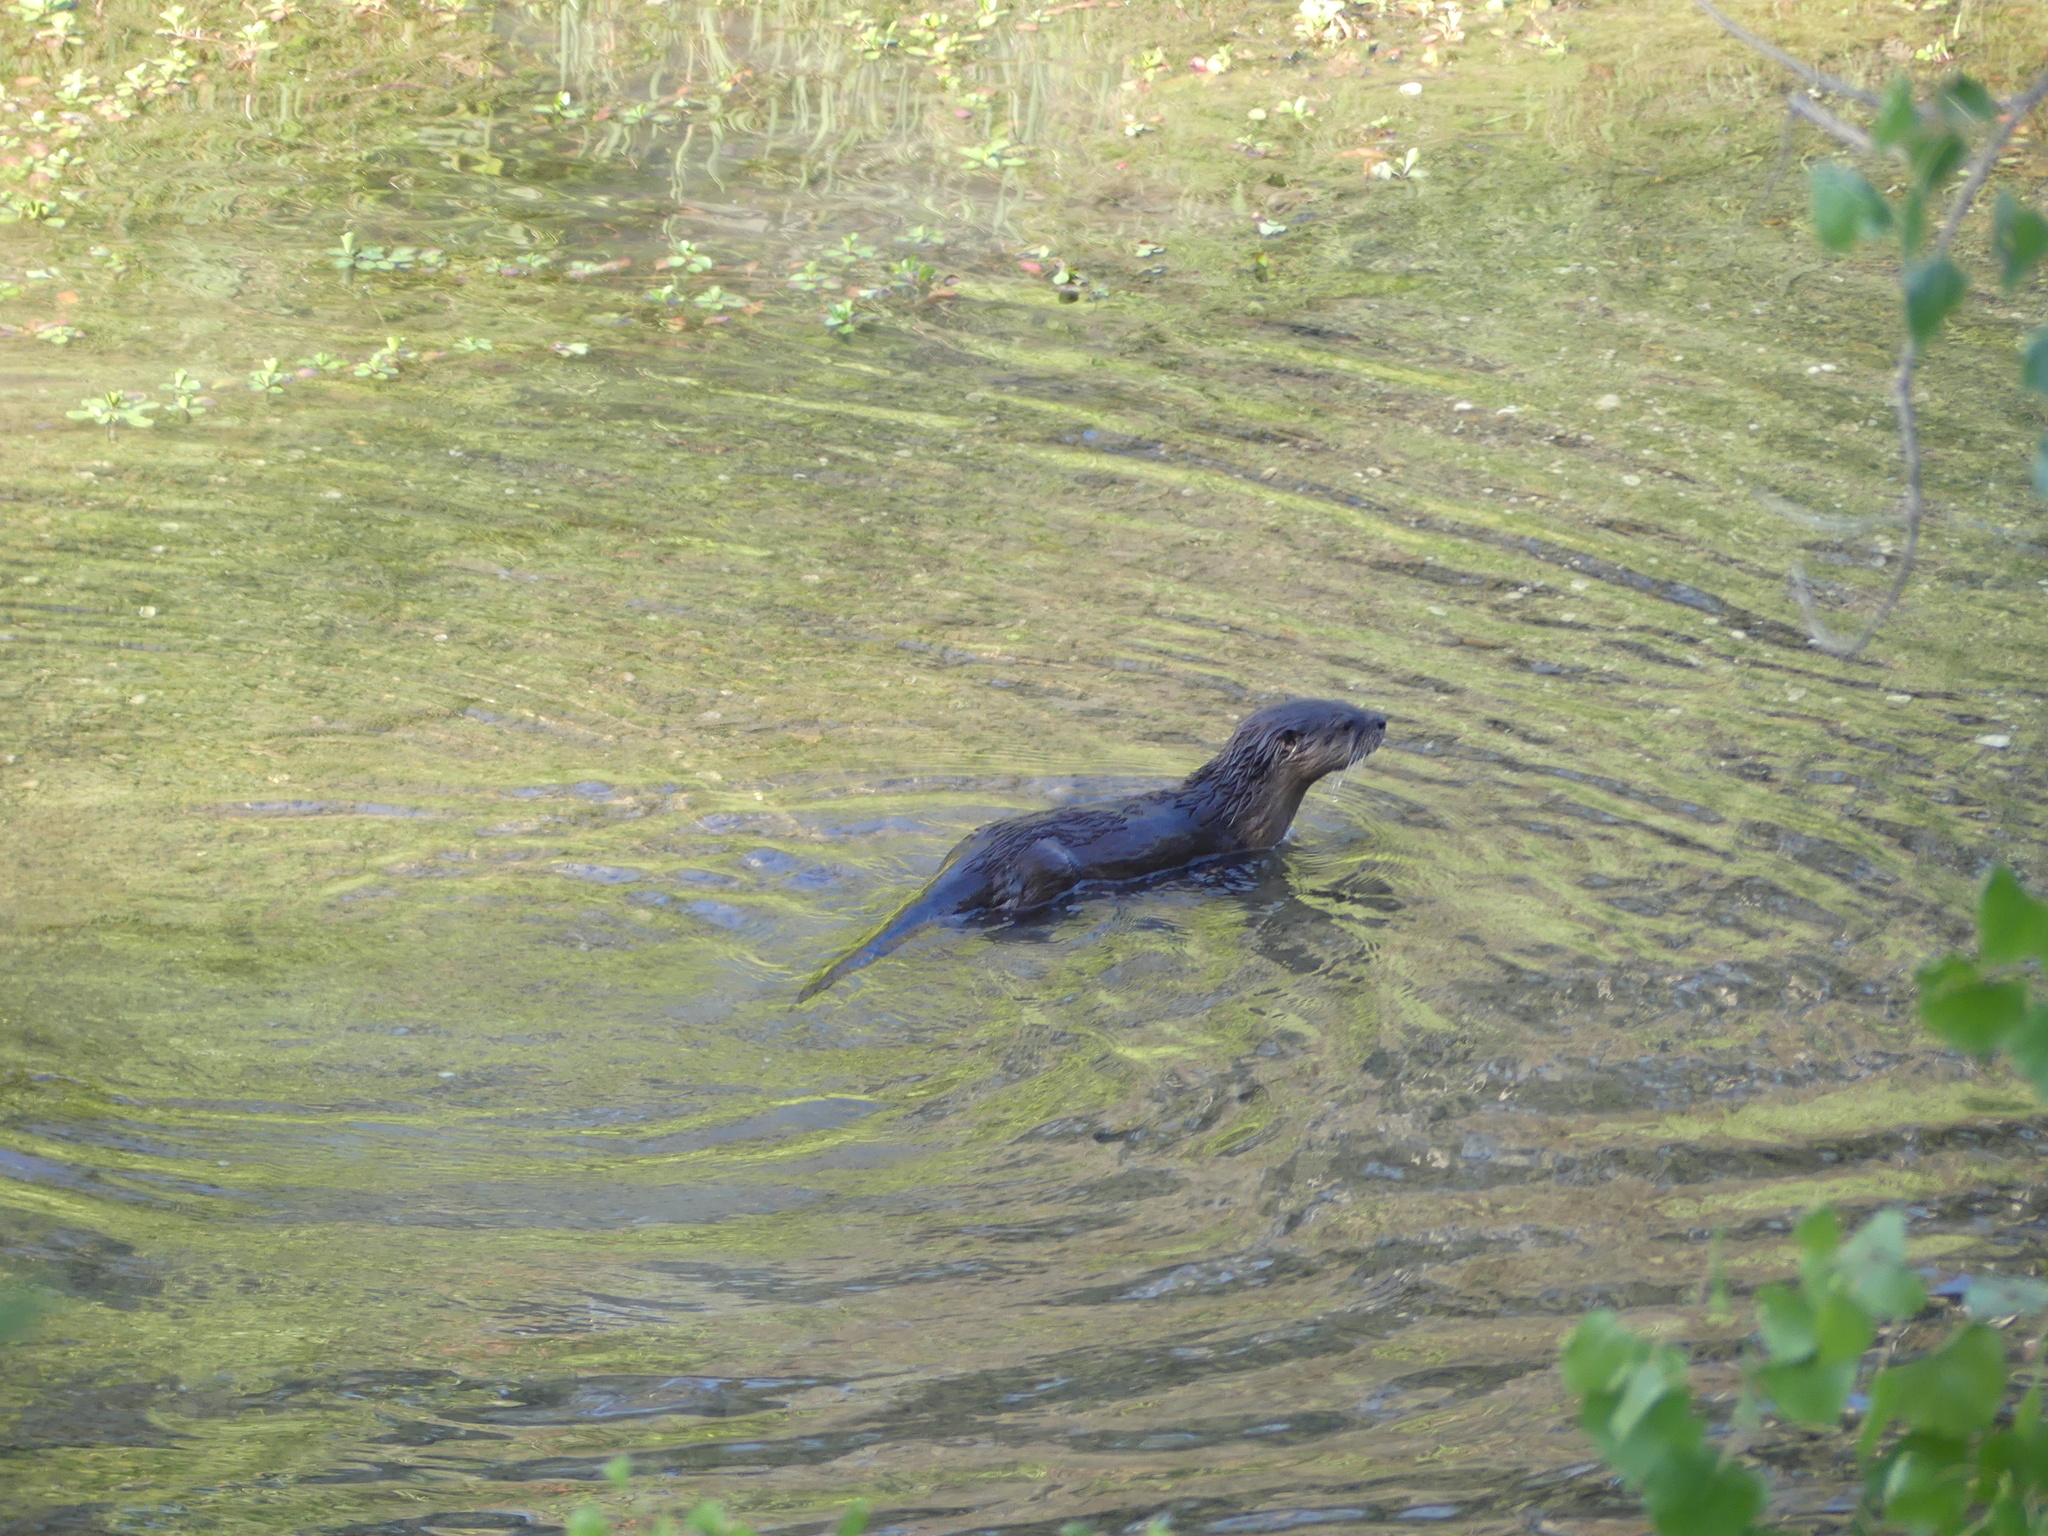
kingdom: Animalia
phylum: Chordata
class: Mammalia
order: Carnivora
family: Mustelidae
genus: Lontra
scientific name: Lontra canadensis
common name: North american river otter
